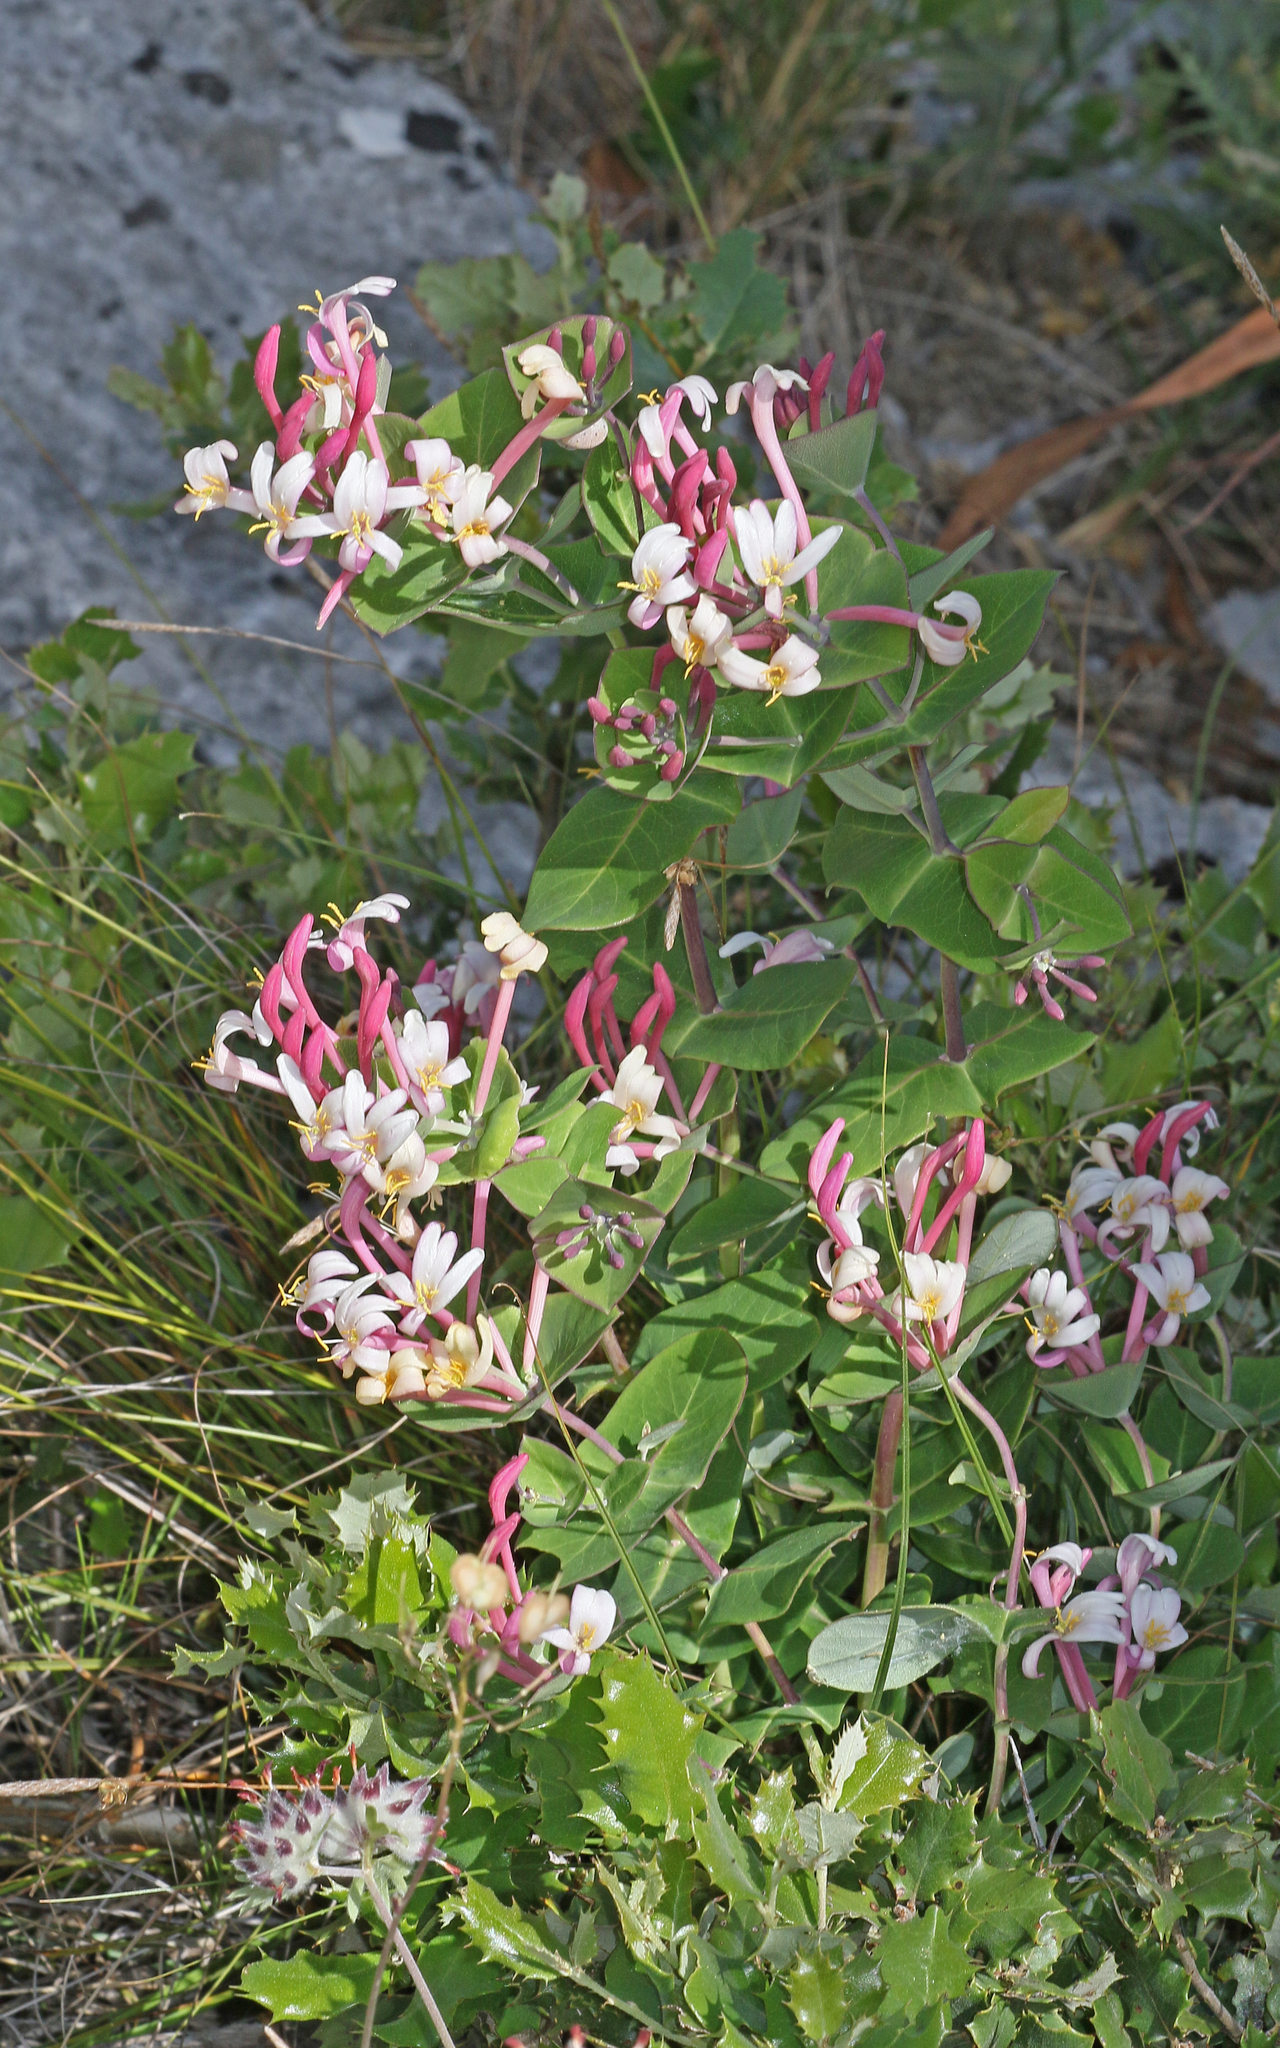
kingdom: Plantae
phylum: Tracheophyta
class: Magnoliopsida
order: Dipsacales
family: Caprifoliaceae
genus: Lonicera
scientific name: Lonicera implexa
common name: Minorca honeysuckle
